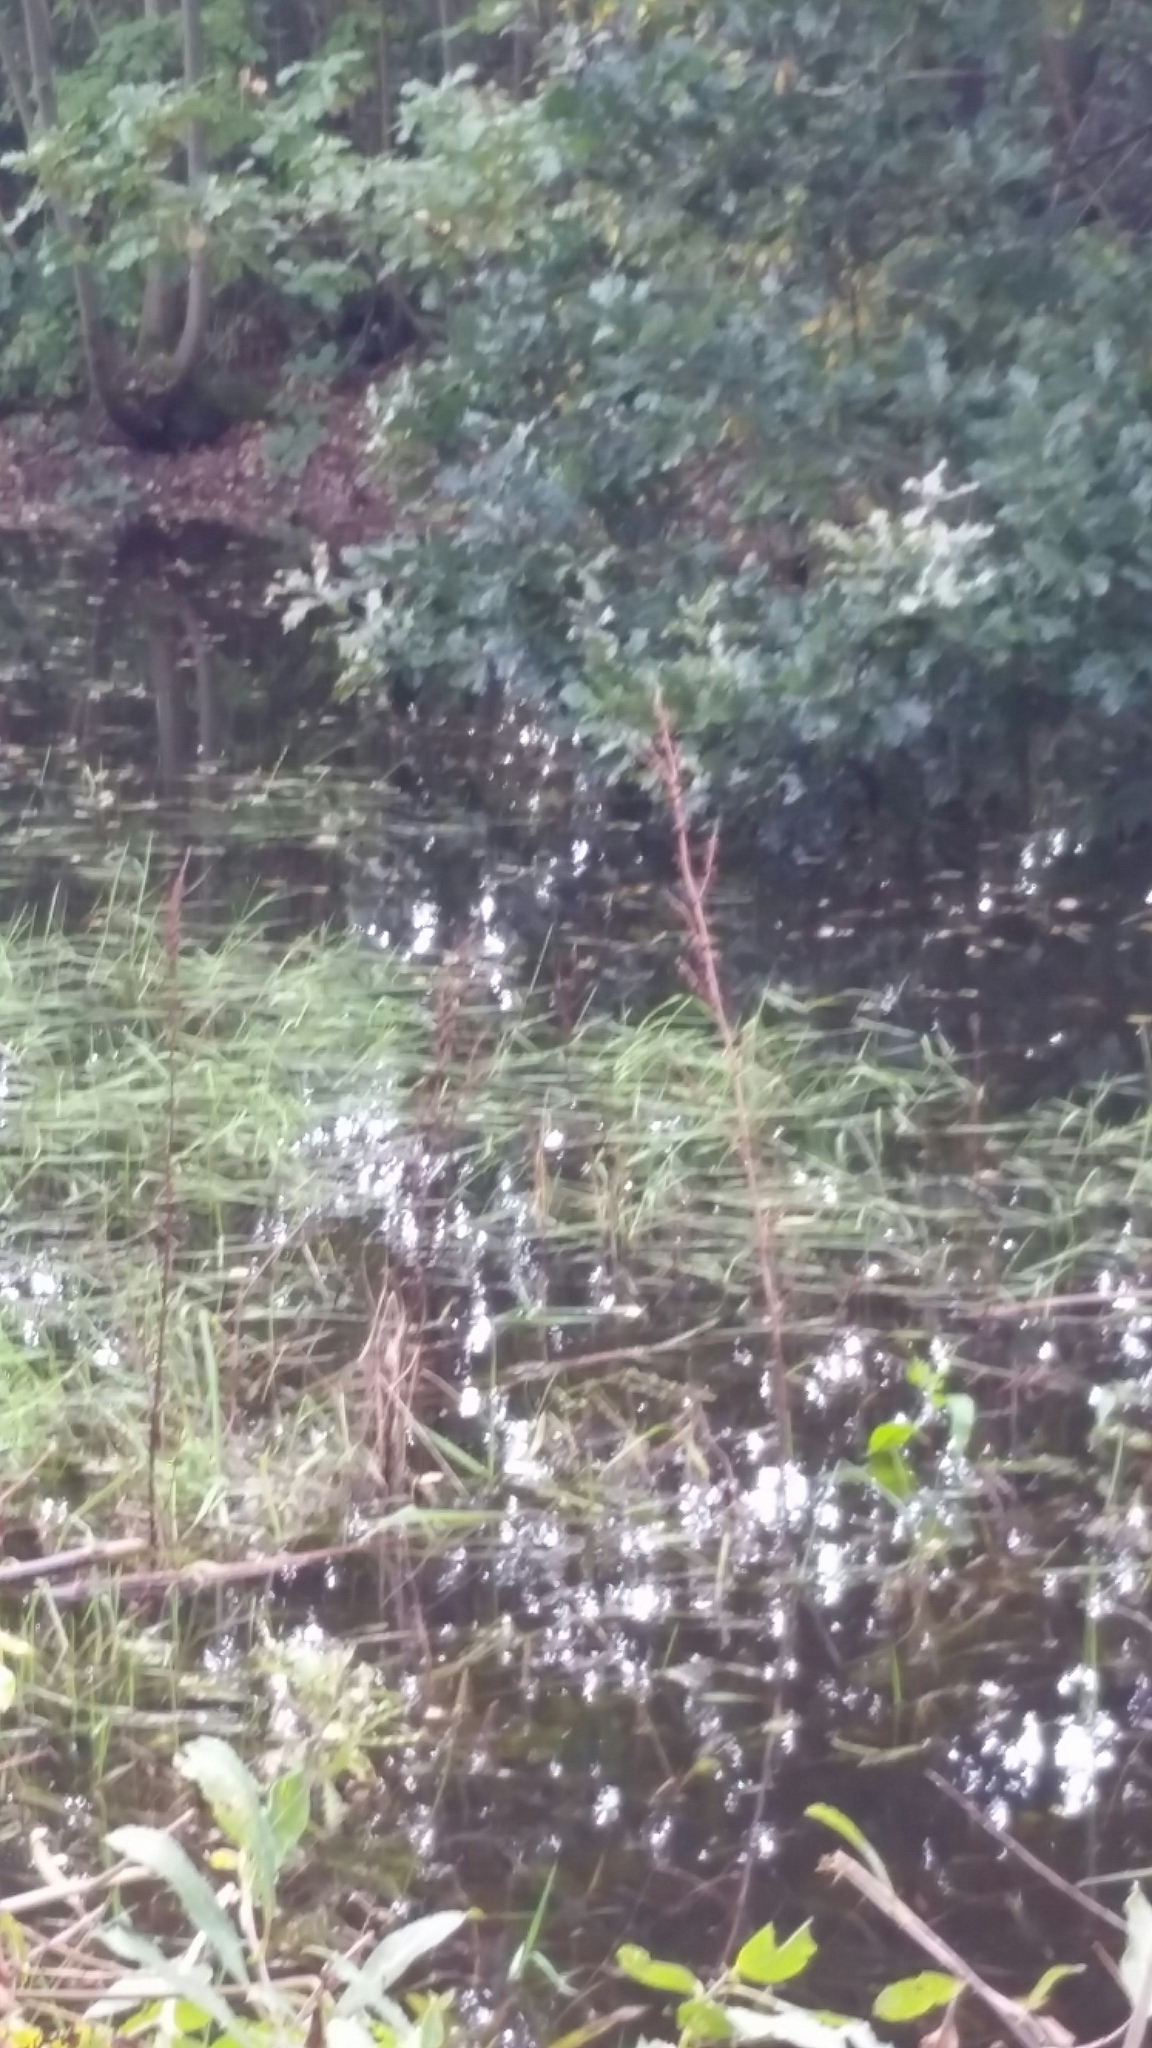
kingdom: Plantae
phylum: Tracheophyta
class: Liliopsida
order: Poales
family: Poaceae
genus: Glyceria
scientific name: Glyceria fluitans
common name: Floating sweet-grass
